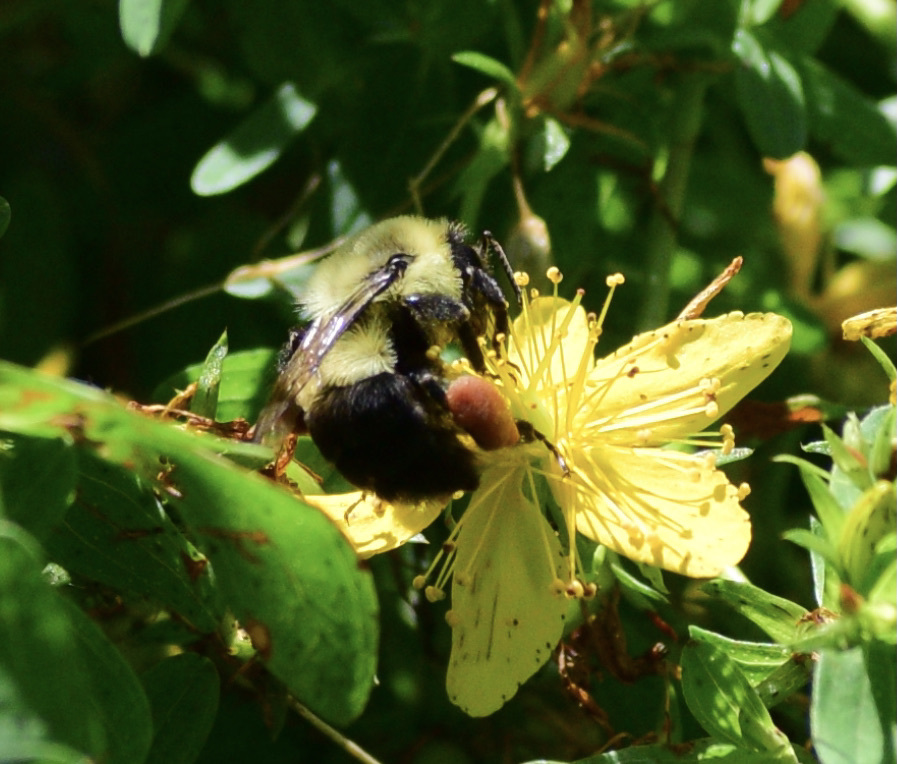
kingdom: Animalia
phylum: Arthropoda
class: Insecta
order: Hymenoptera
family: Apidae
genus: Bombus
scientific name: Bombus impatiens
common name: Common eastern bumble bee
